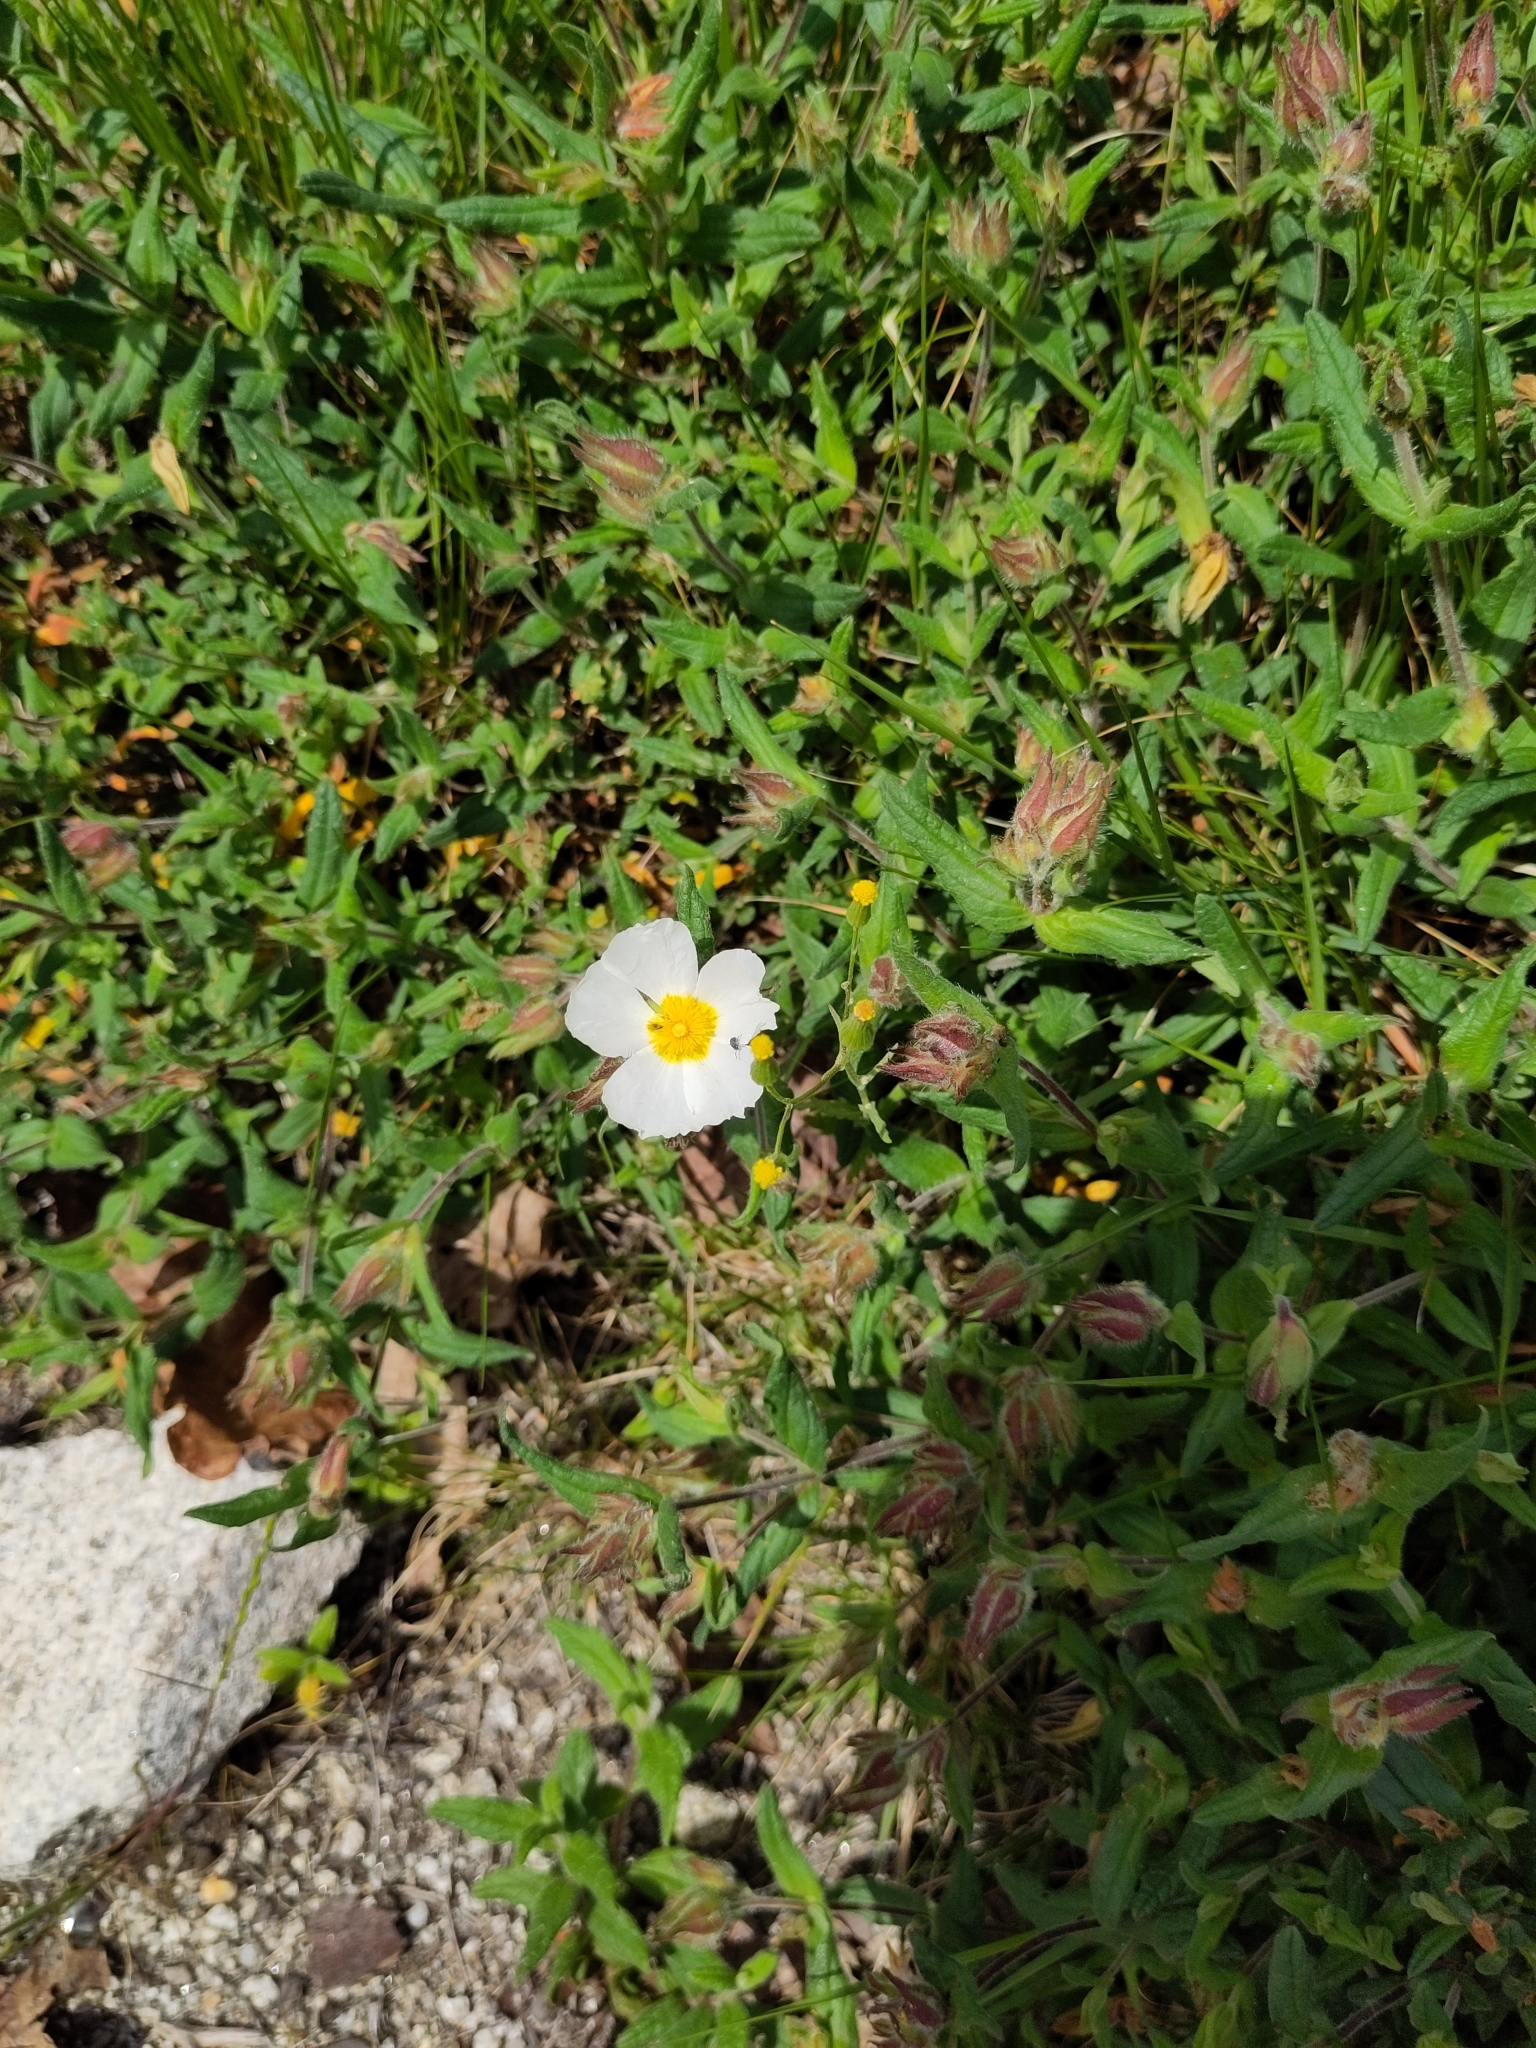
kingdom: Plantae
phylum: Tracheophyta
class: Magnoliopsida
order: Malvales
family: Cistaceae
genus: Cistus
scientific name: Cistus inflatus
